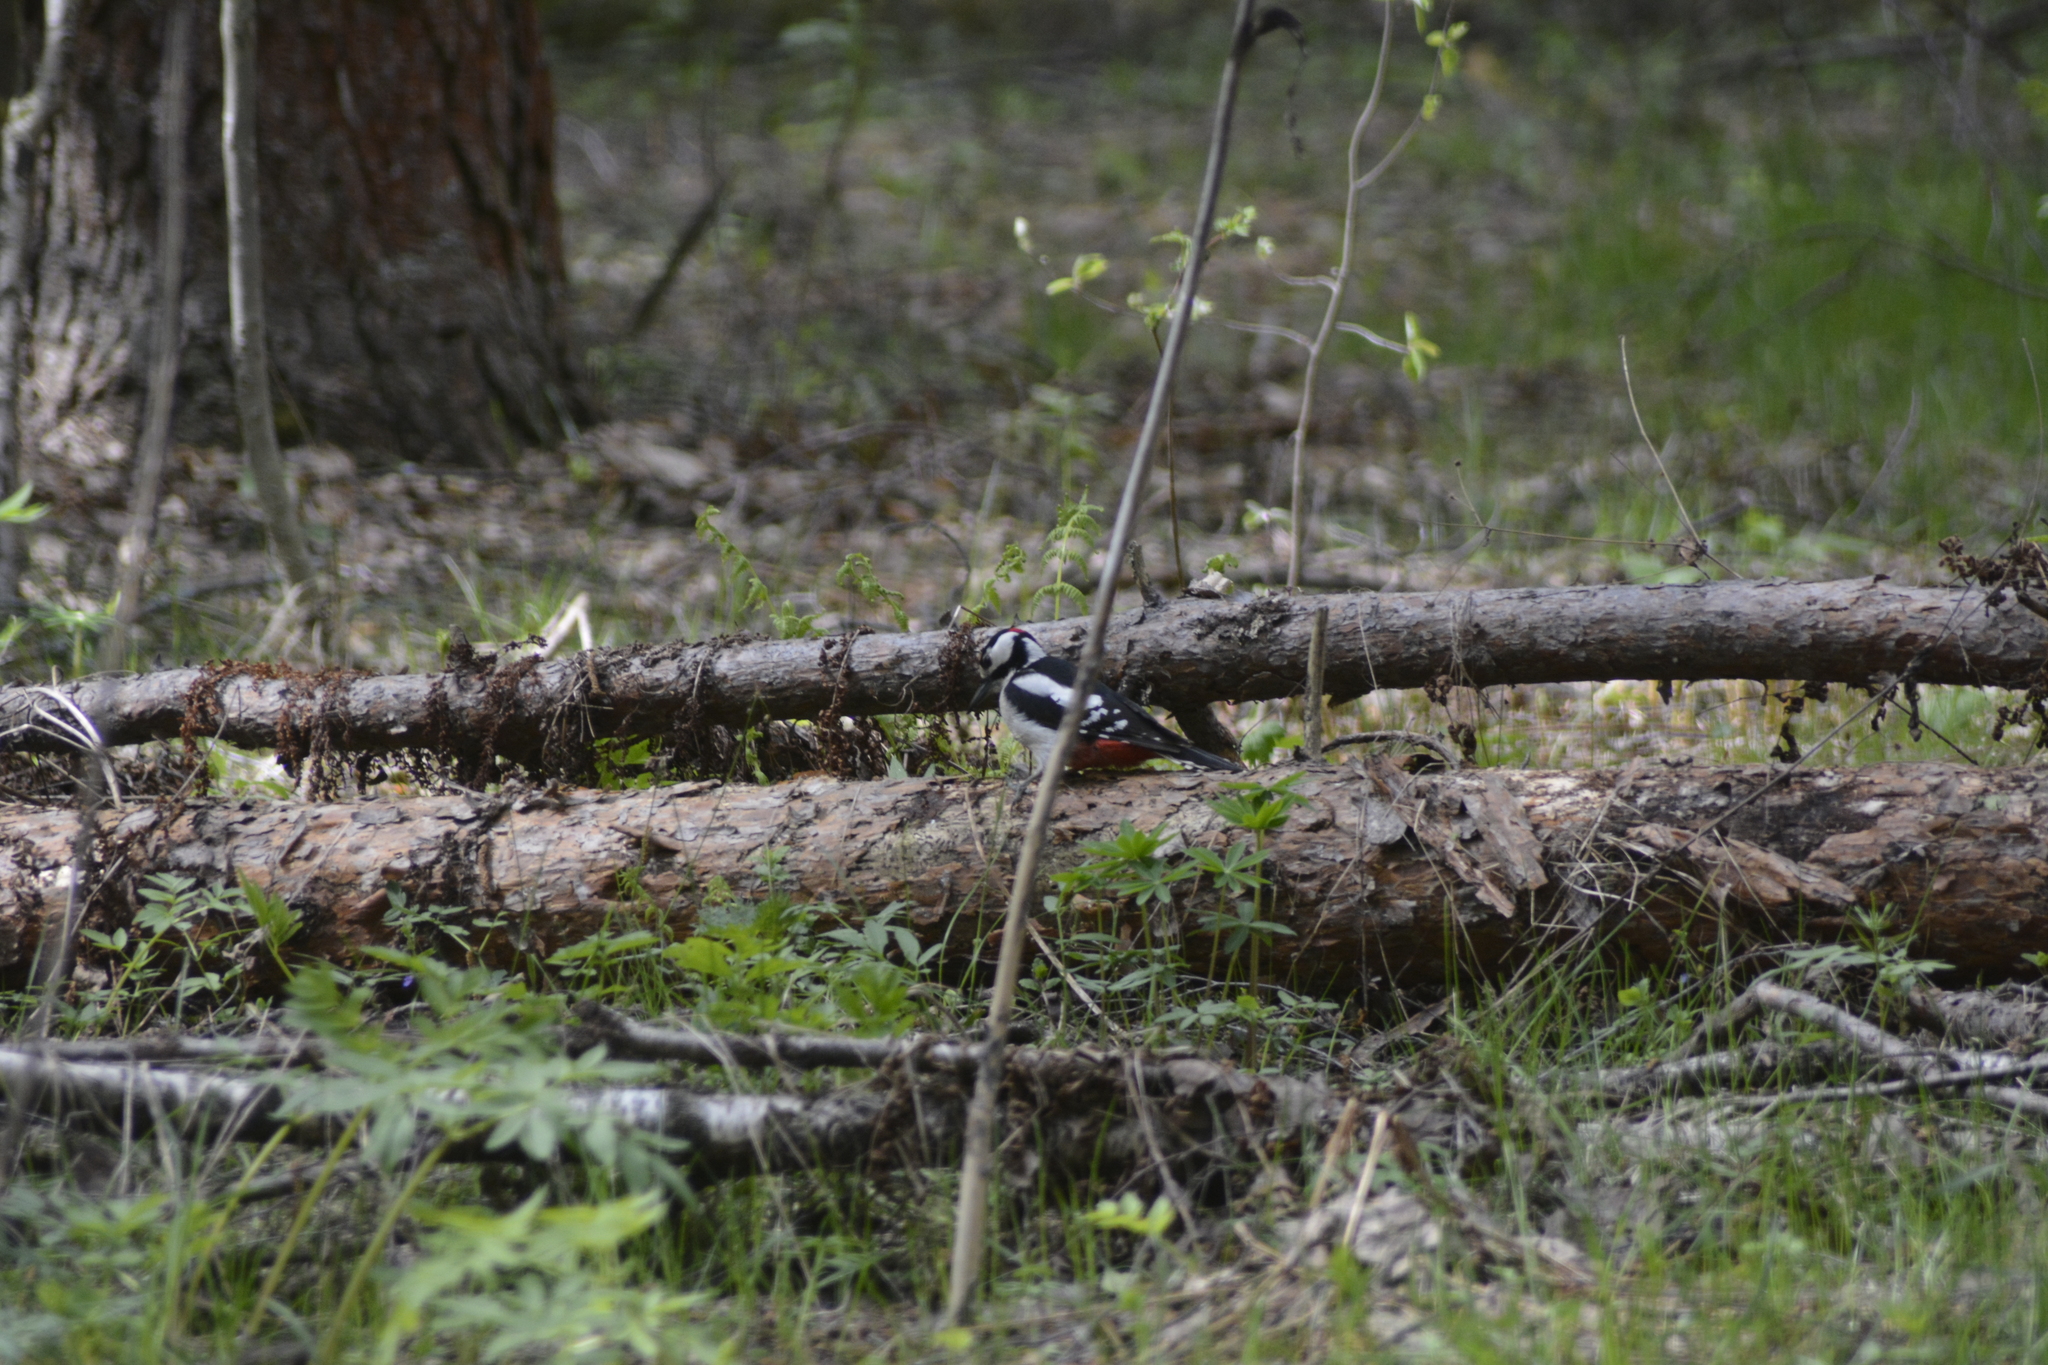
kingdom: Animalia
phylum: Chordata
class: Aves
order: Piciformes
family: Picidae
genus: Dendrocopos
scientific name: Dendrocopos major
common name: Great spotted woodpecker
